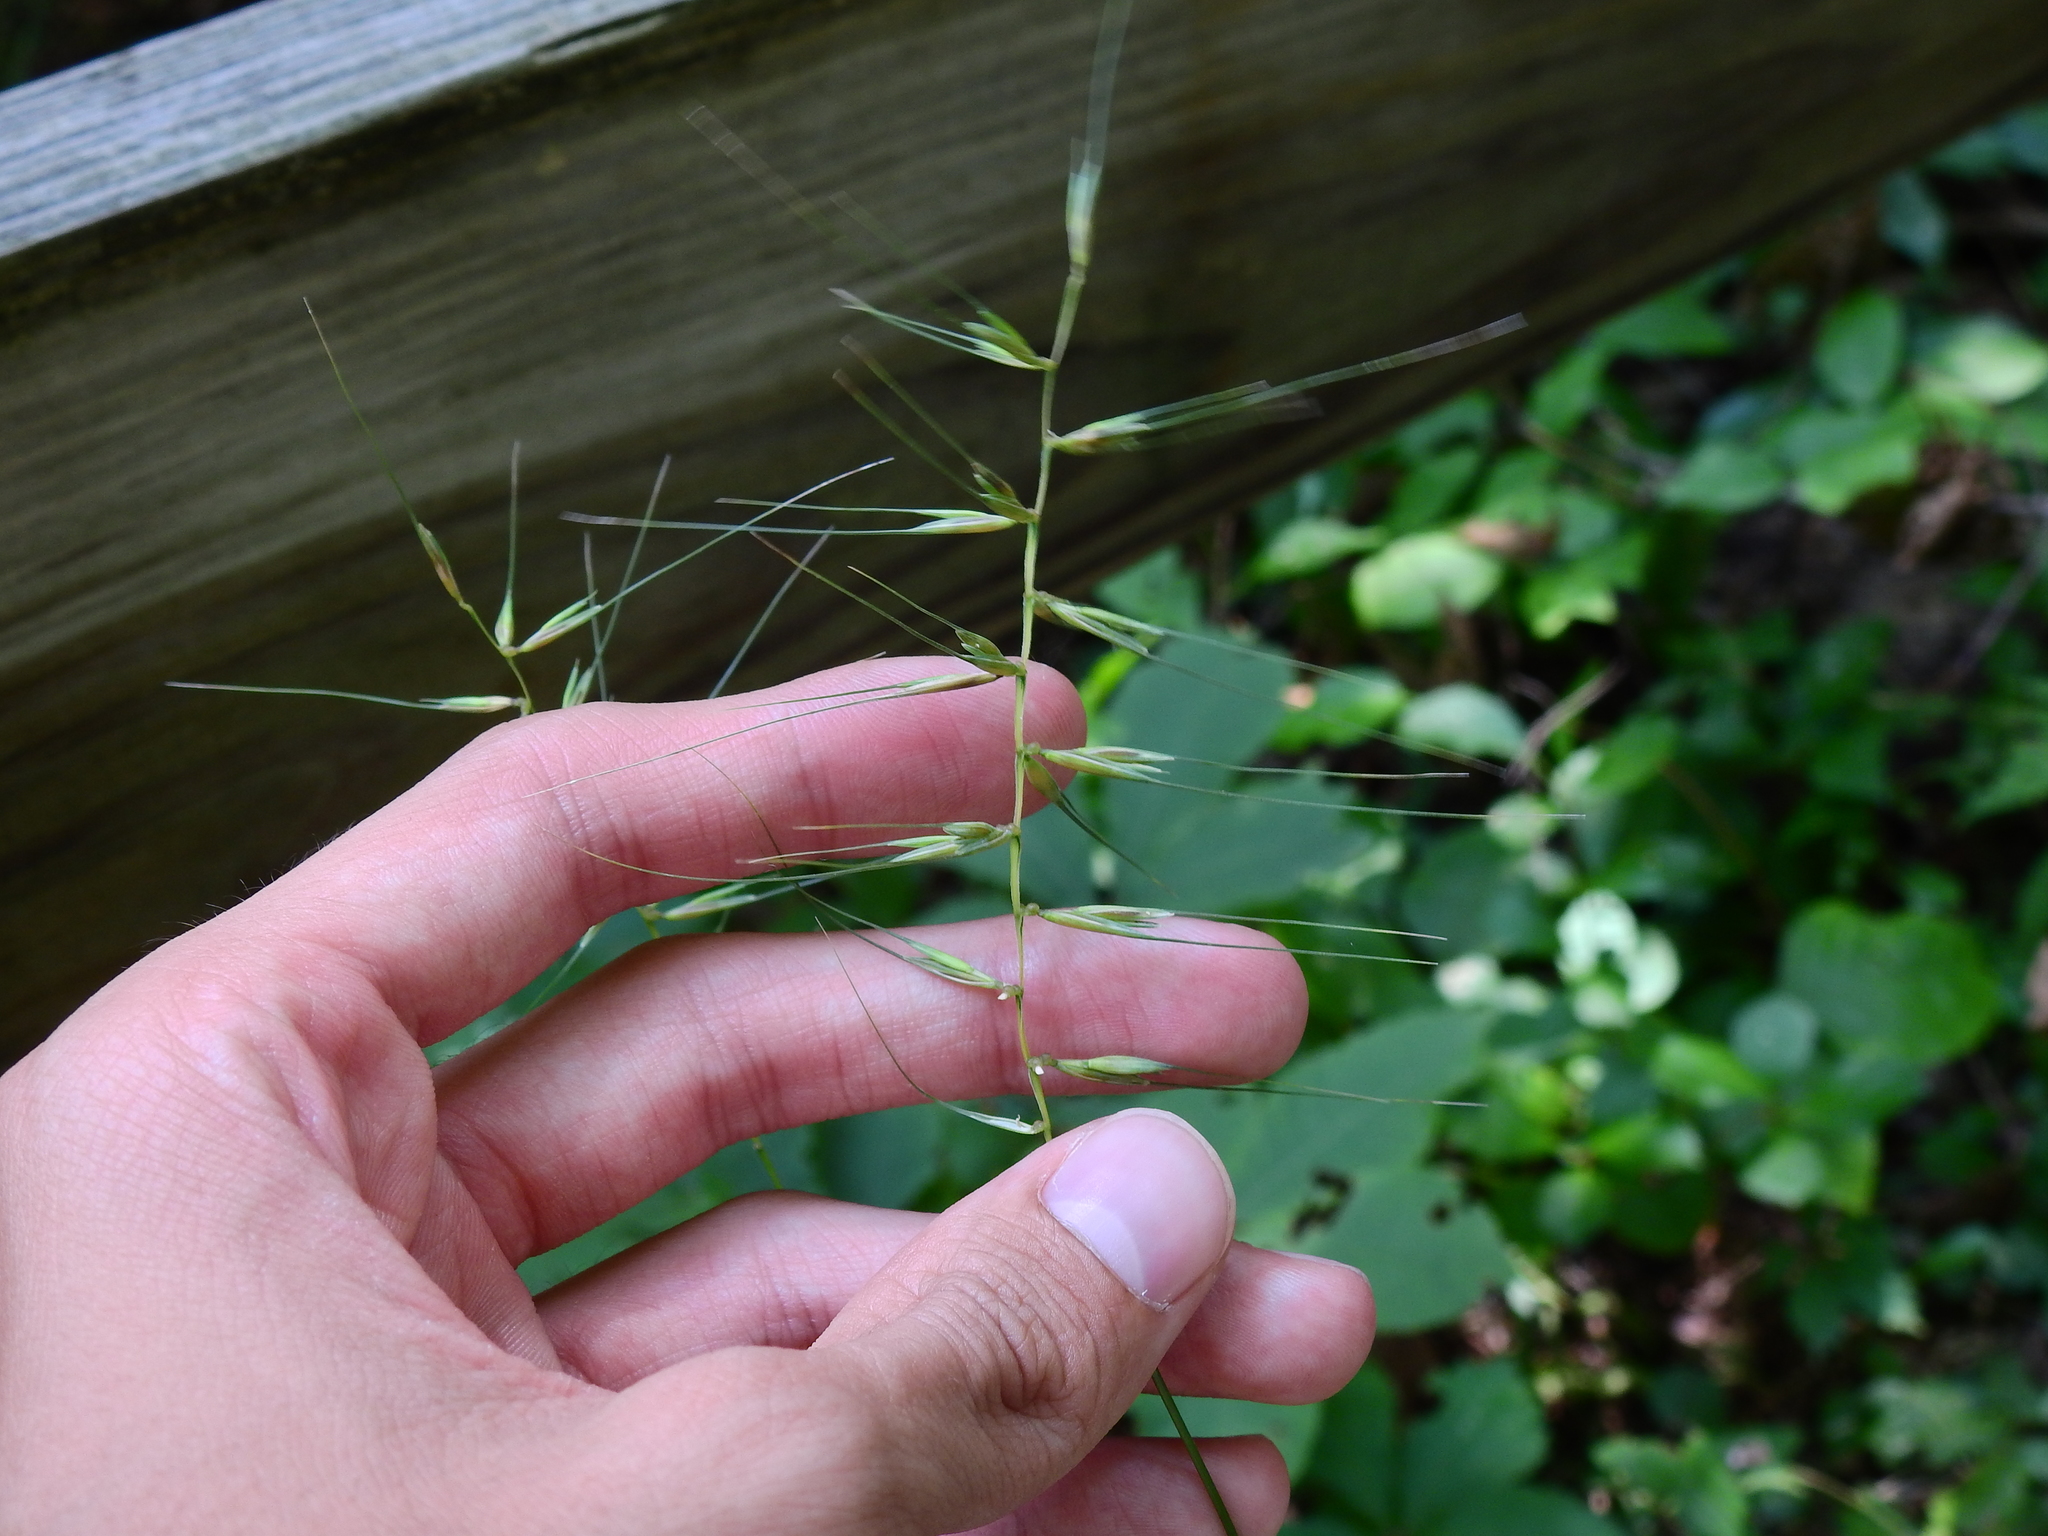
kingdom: Plantae
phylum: Tracheophyta
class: Liliopsida
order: Poales
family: Poaceae
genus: Elymus
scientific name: Elymus hystrix
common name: Bottlebrush grass
